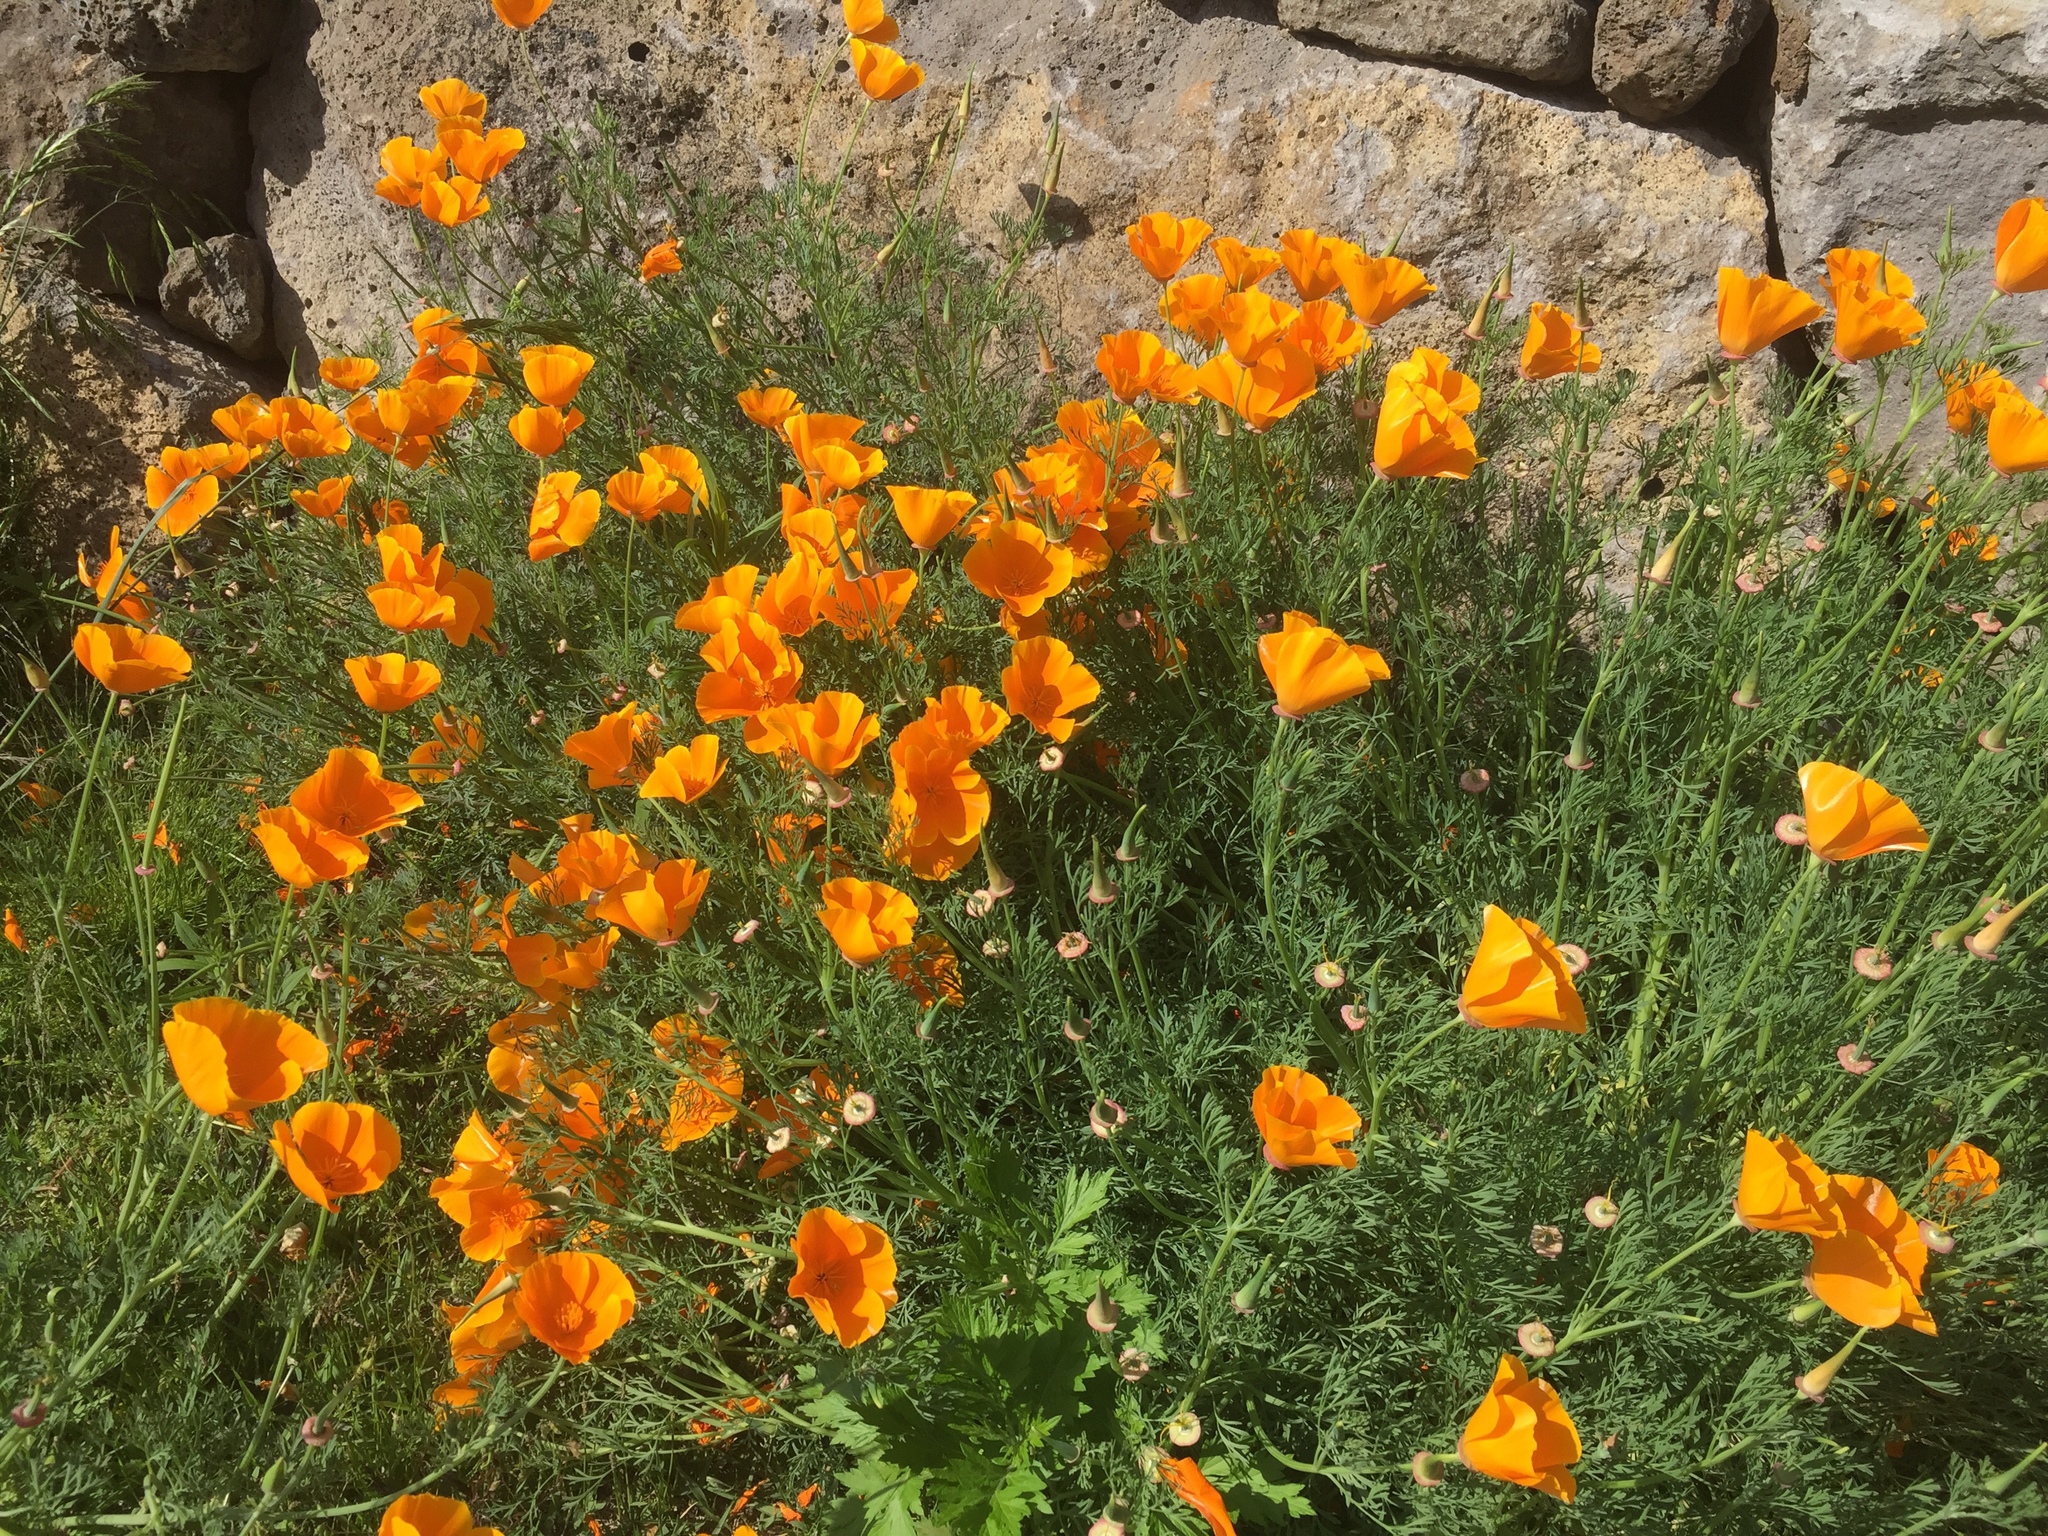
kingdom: Plantae
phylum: Tracheophyta
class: Magnoliopsida
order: Ranunculales
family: Papaveraceae
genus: Eschscholzia
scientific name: Eschscholzia californica
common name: California poppy
